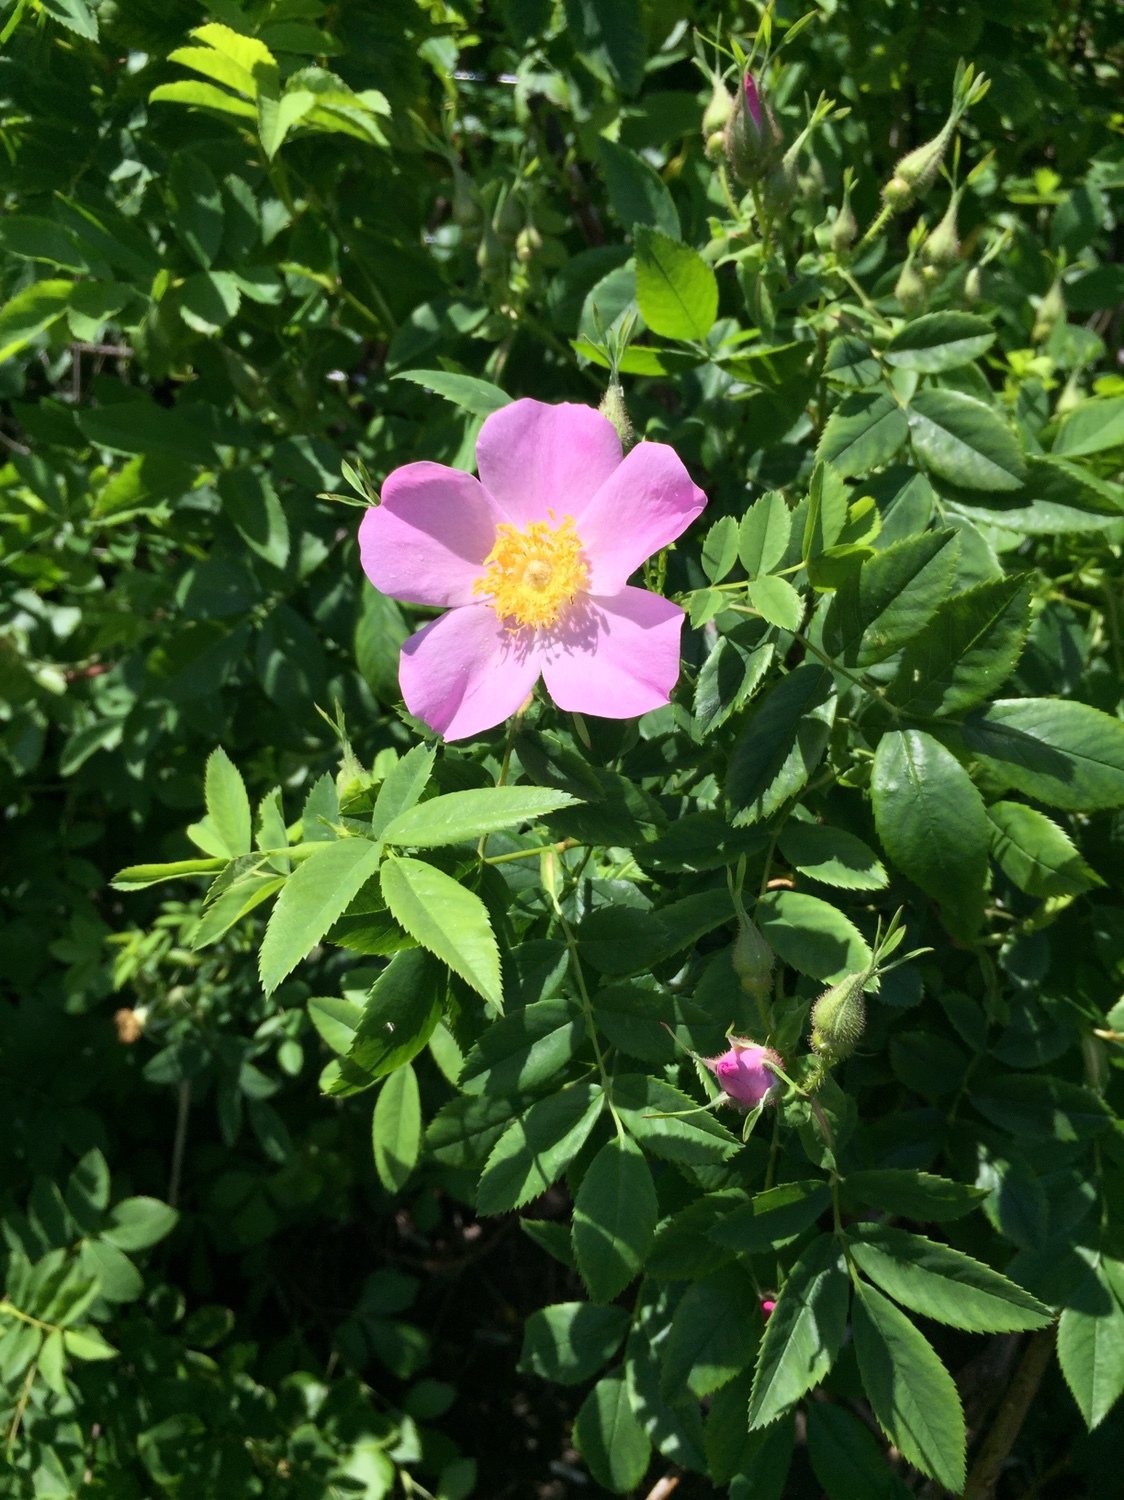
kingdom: Plantae
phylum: Tracheophyta
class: Magnoliopsida
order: Rosales
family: Rosaceae
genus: Rosa
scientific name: Rosa virginiana
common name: Virginian rose
